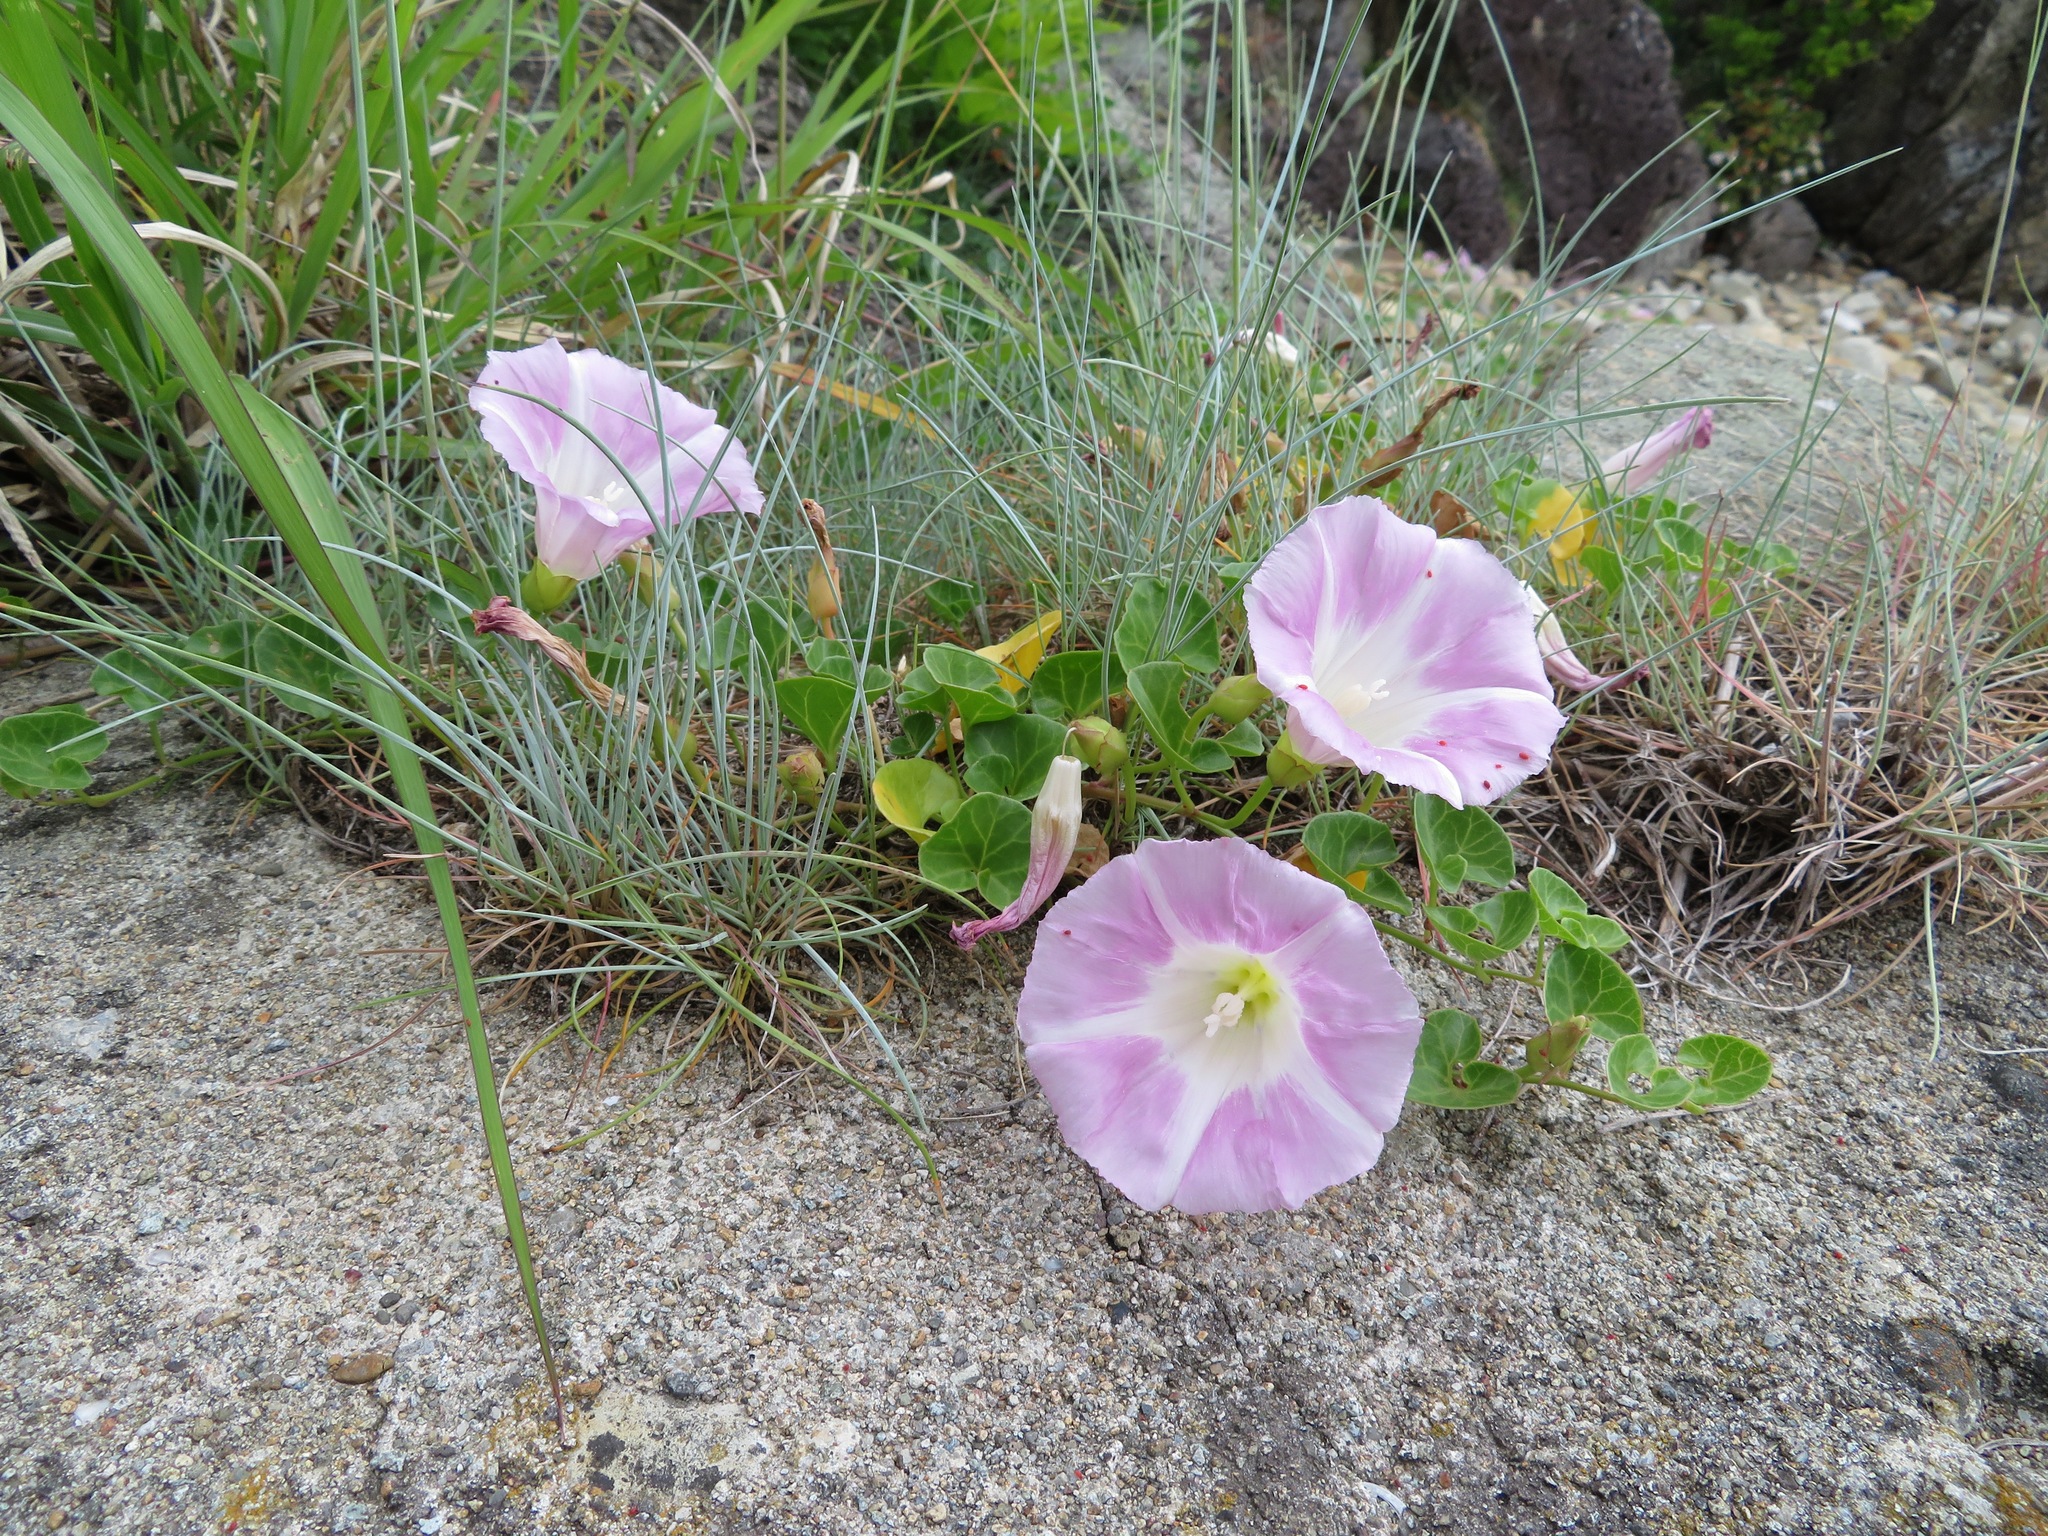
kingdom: Plantae
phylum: Tracheophyta
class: Magnoliopsida
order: Solanales
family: Convolvulaceae
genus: Calystegia
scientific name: Calystegia soldanella
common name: Sea bindweed
